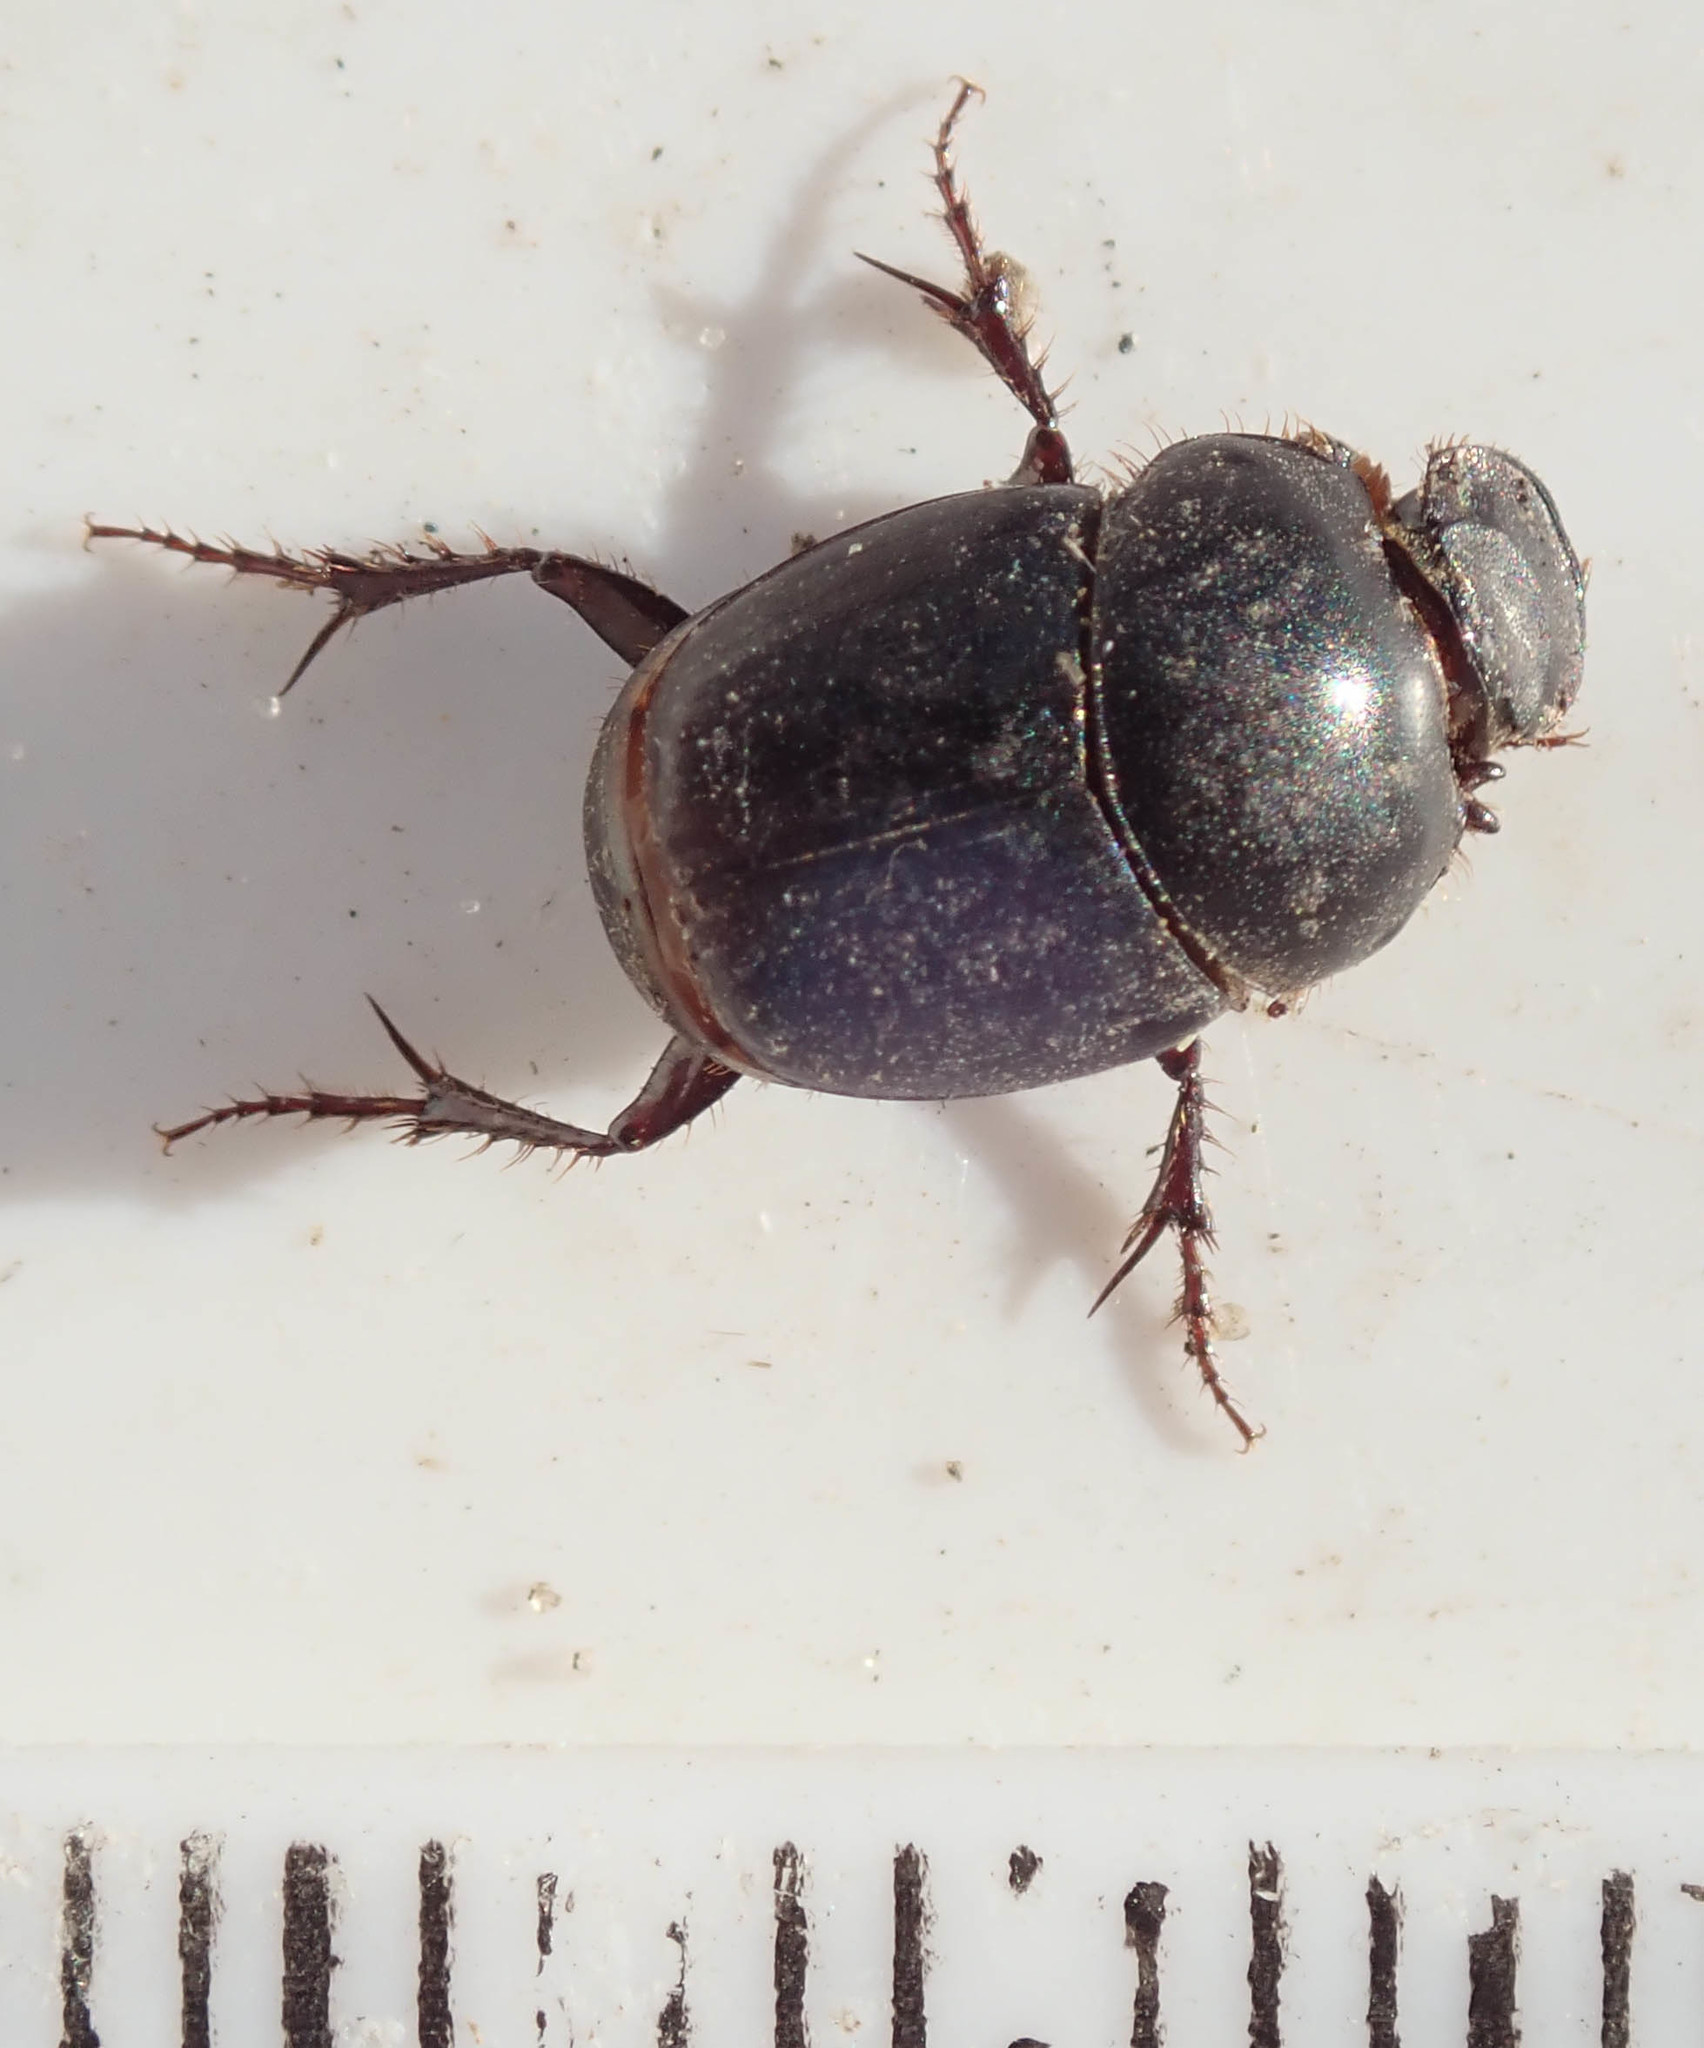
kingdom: Animalia
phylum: Arthropoda
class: Insecta
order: Coleoptera
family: Scarabaeidae
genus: Euonthophagus
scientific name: Euonthophagus carbonarius
